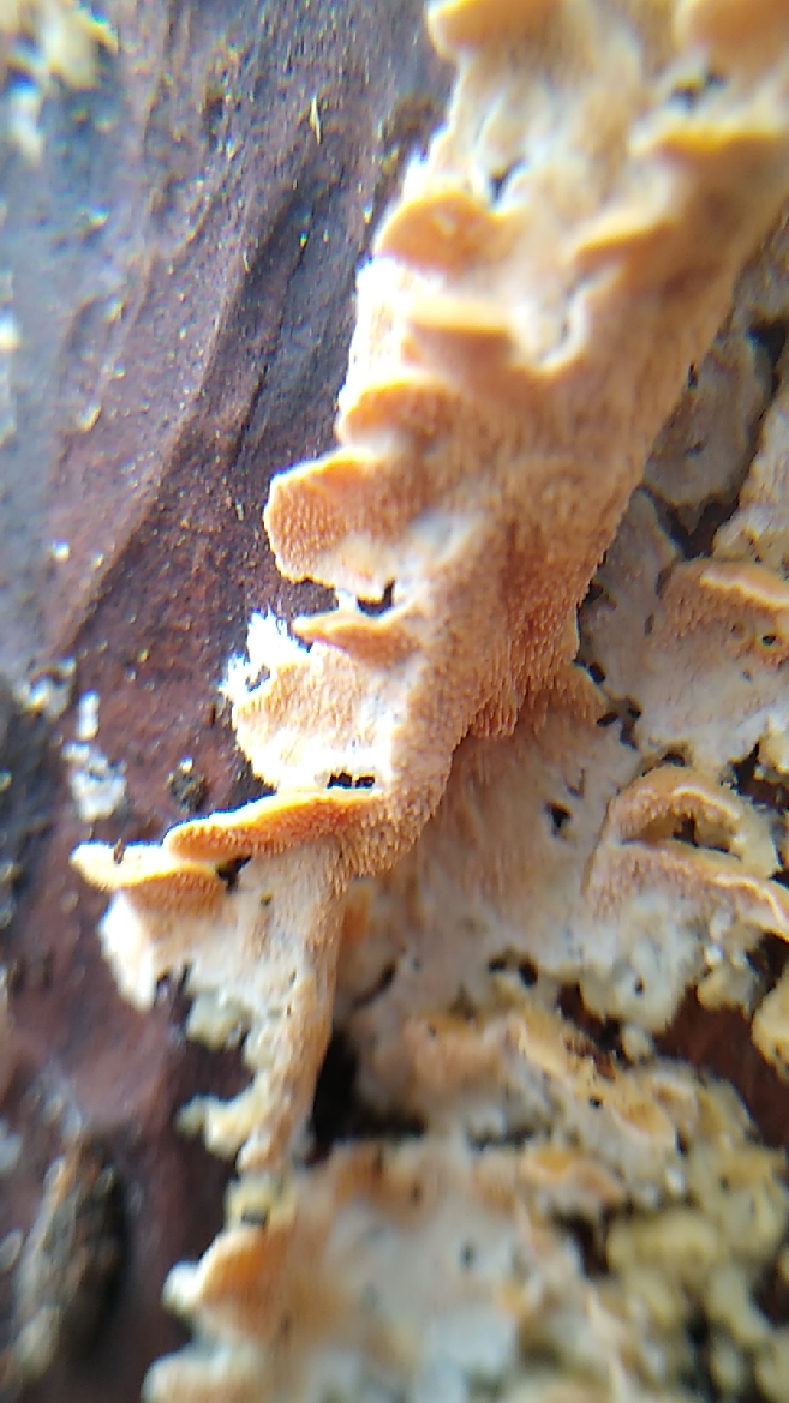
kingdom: Fungi
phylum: Basidiomycota
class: Agaricomycetes
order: Polyporales
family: Steccherinaceae
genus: Steccherinum
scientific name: Steccherinum ochraceum
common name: Ochre spreading tooth
